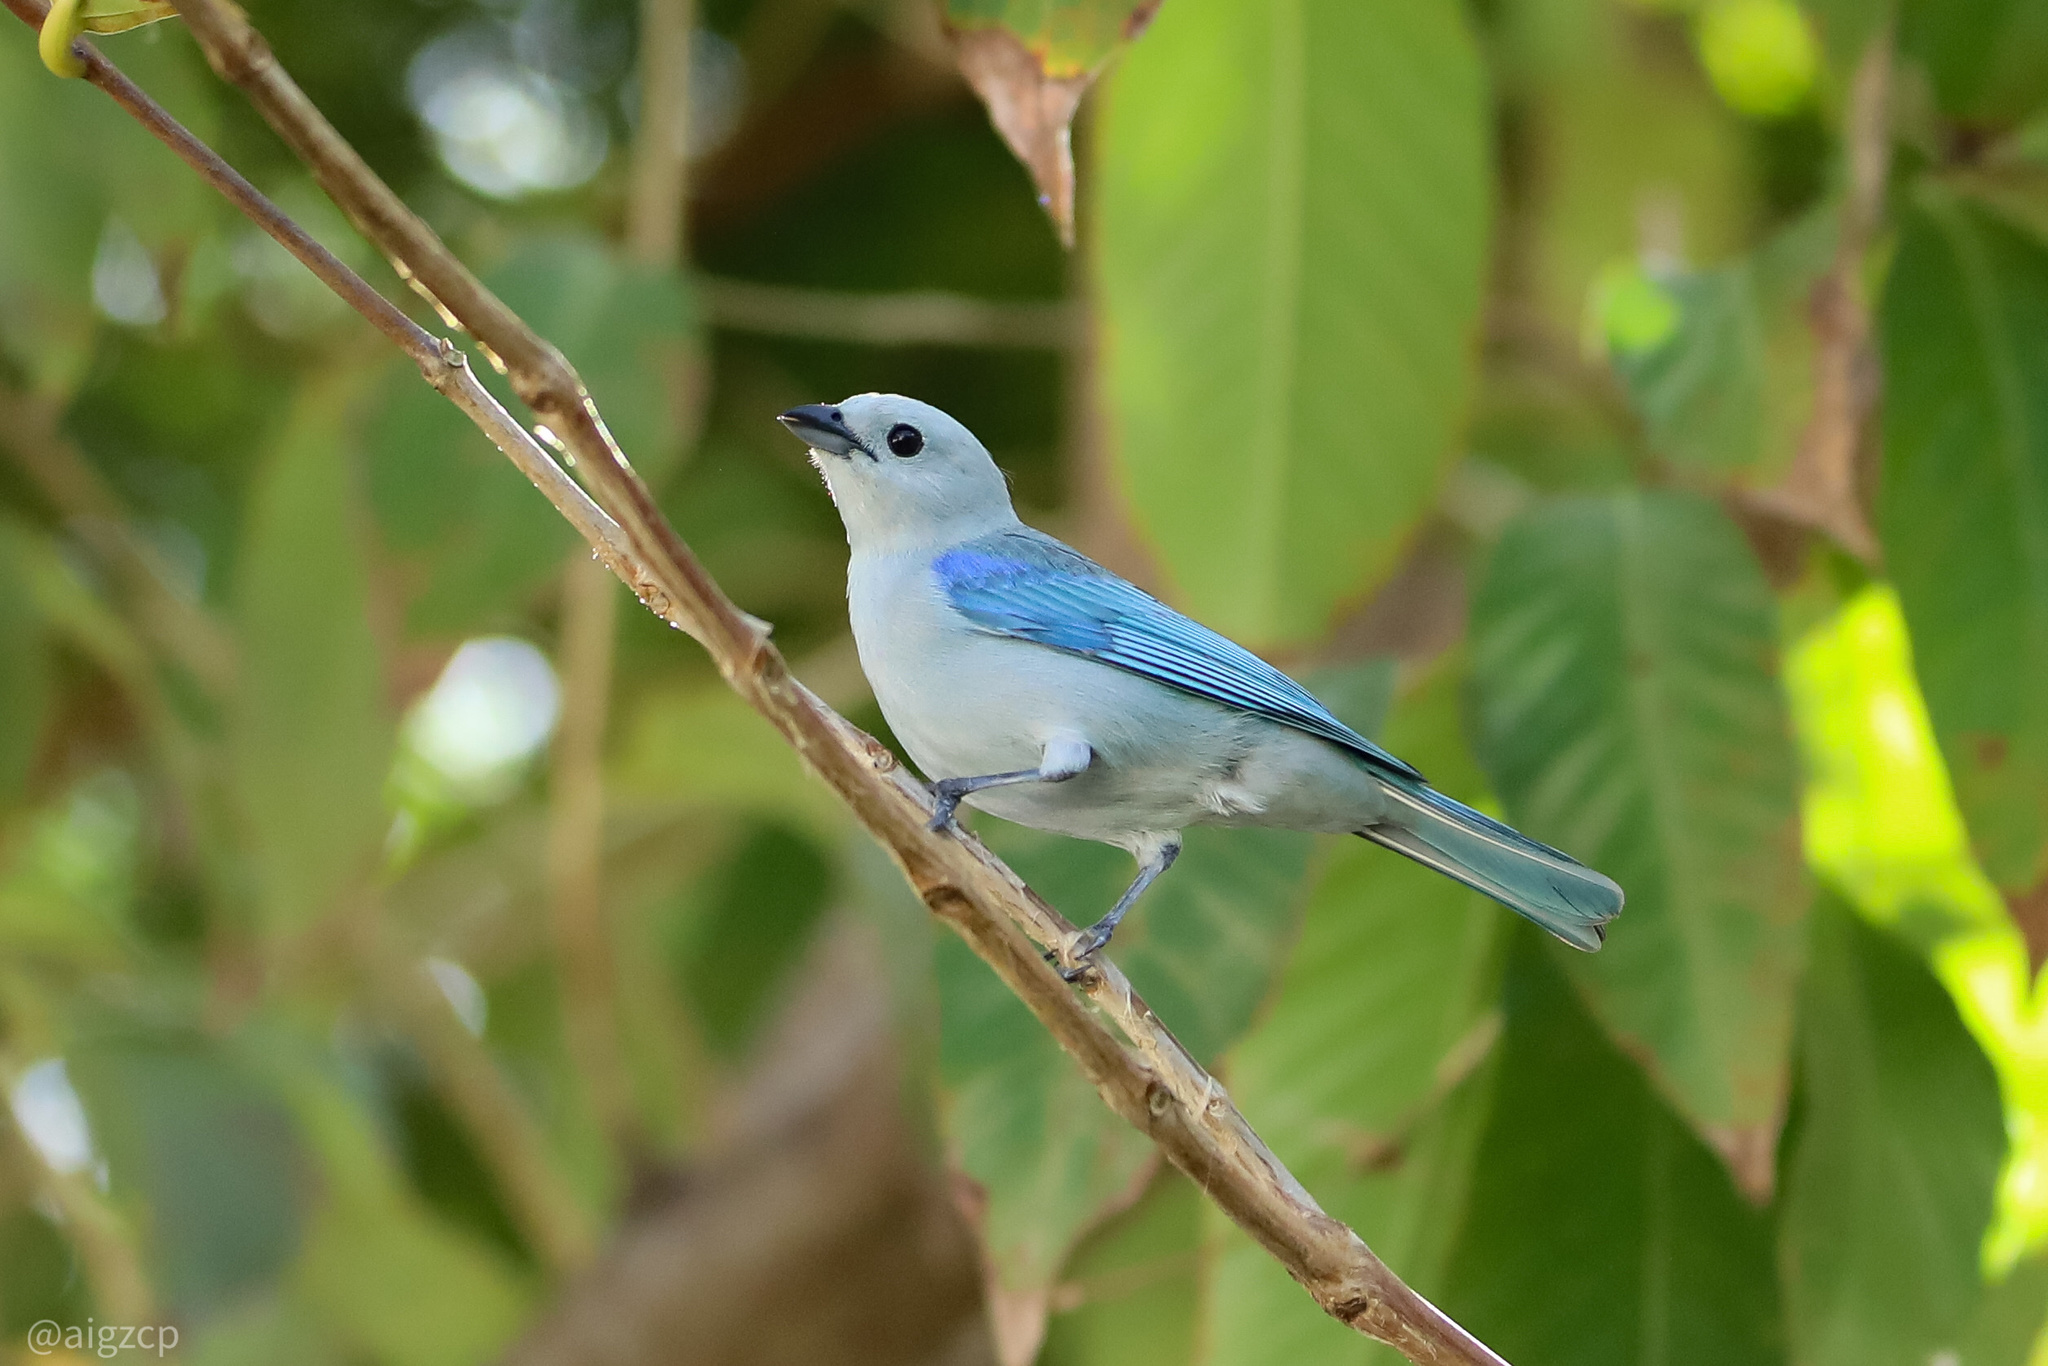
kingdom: Animalia
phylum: Chordata
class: Aves
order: Passeriformes
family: Thraupidae
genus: Thraupis
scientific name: Thraupis episcopus
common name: Blue-grey tanager
